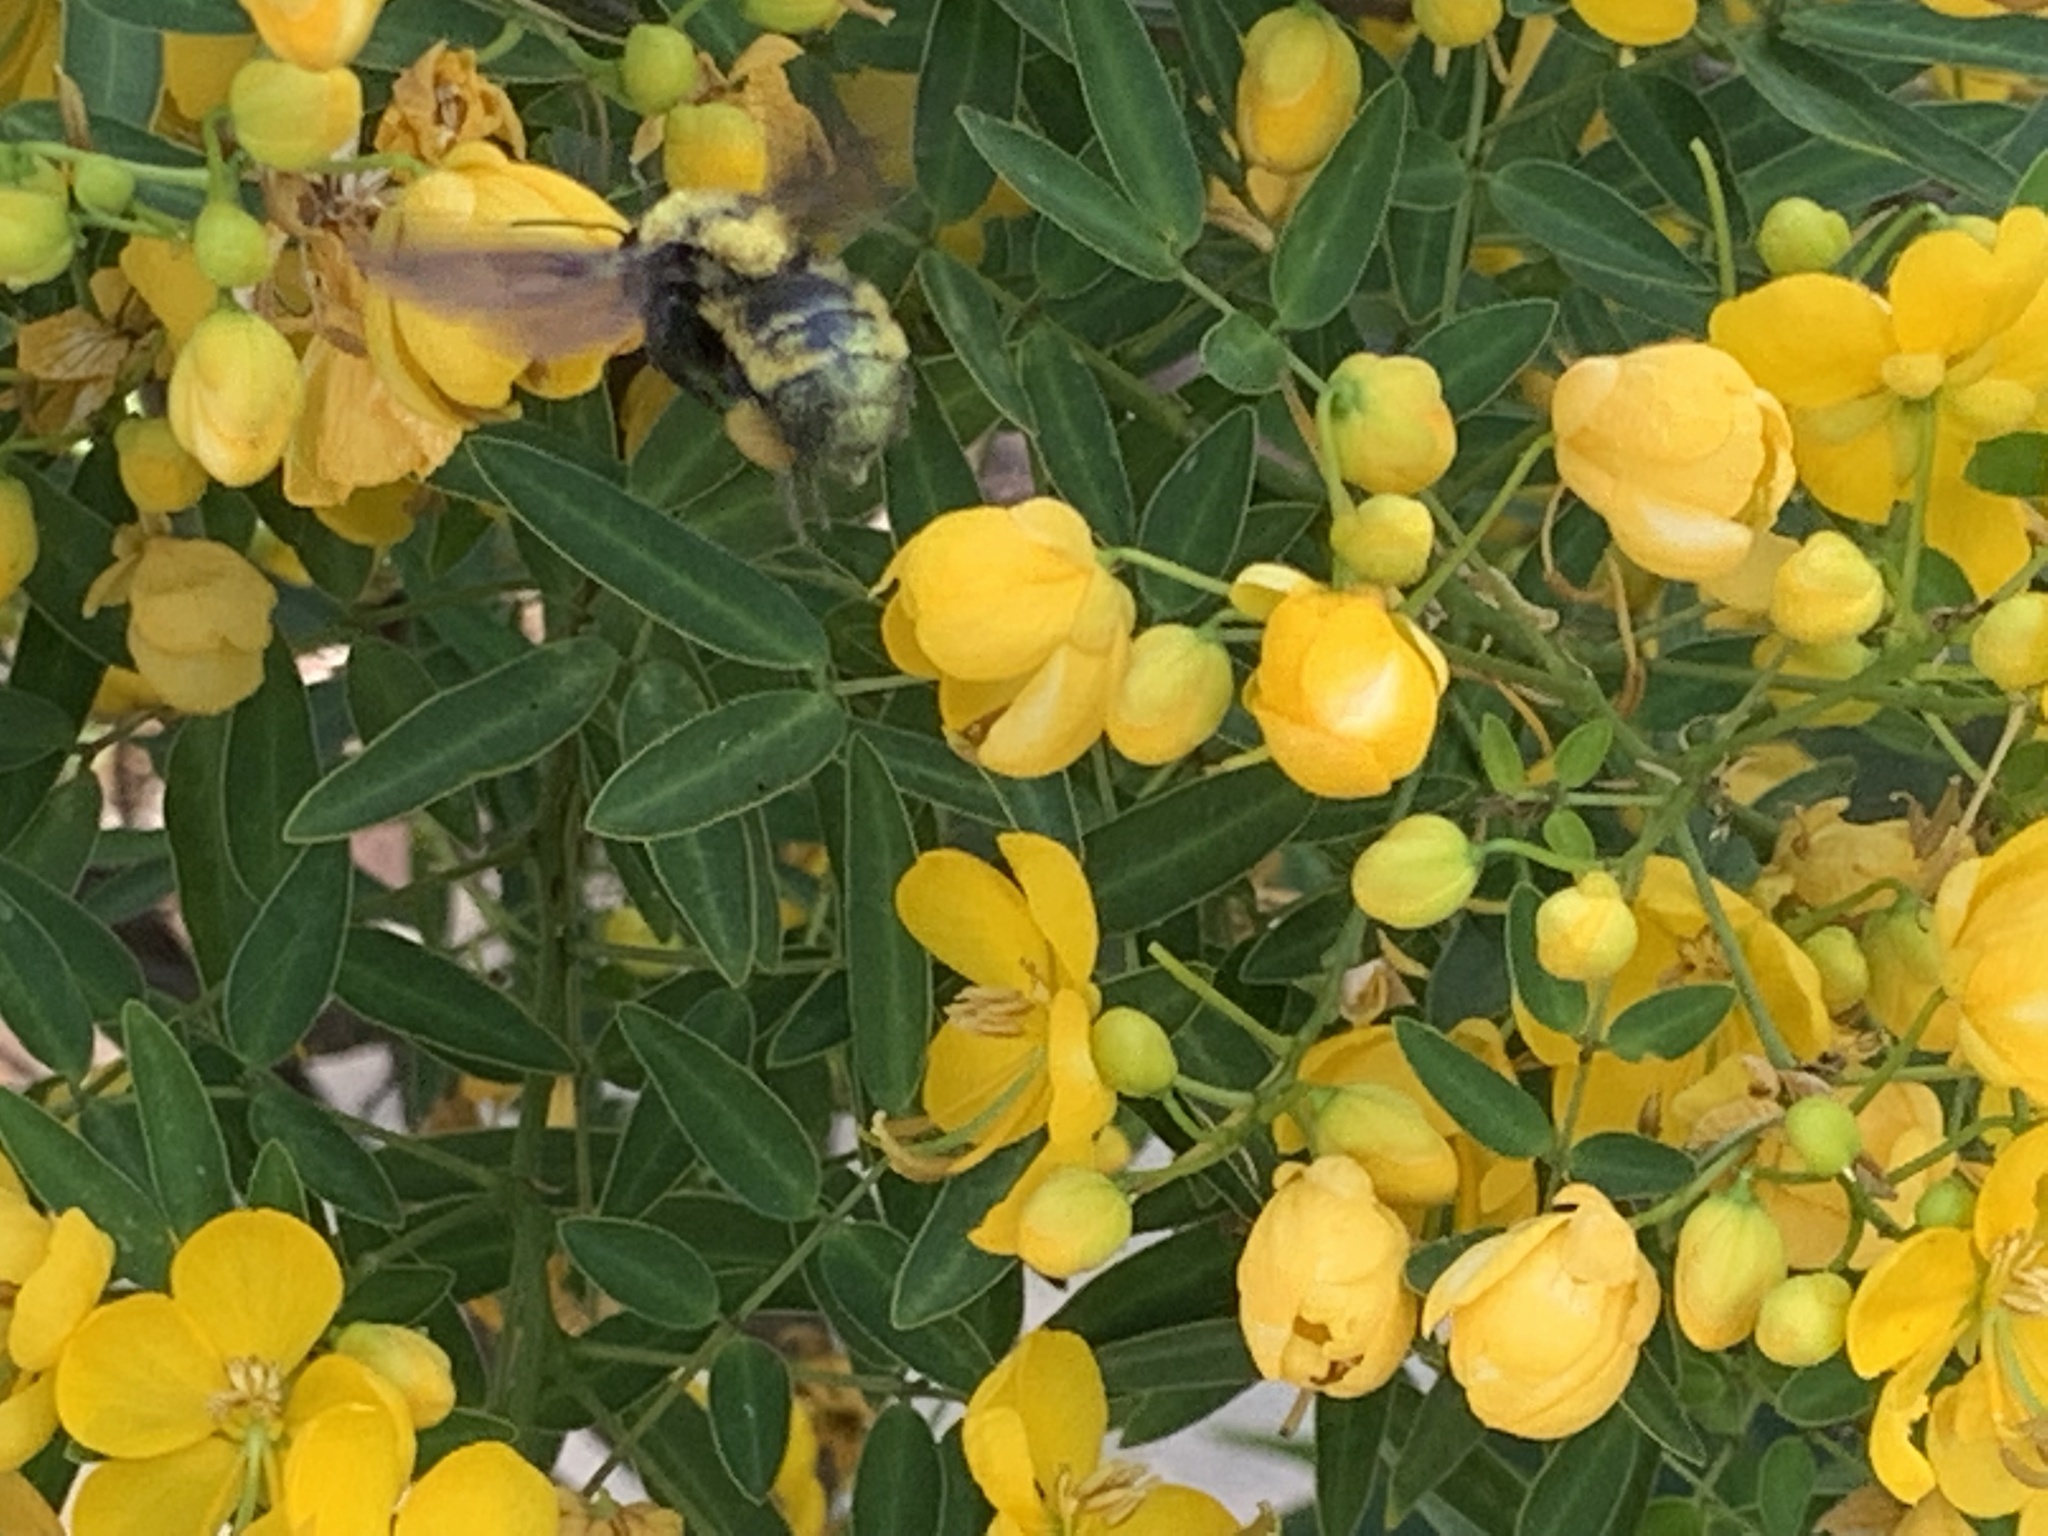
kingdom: Animalia
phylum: Arthropoda
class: Insecta
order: Hymenoptera
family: Apidae
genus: Bombus
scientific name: Bombus sonorus
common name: Sonoran bumble bee
